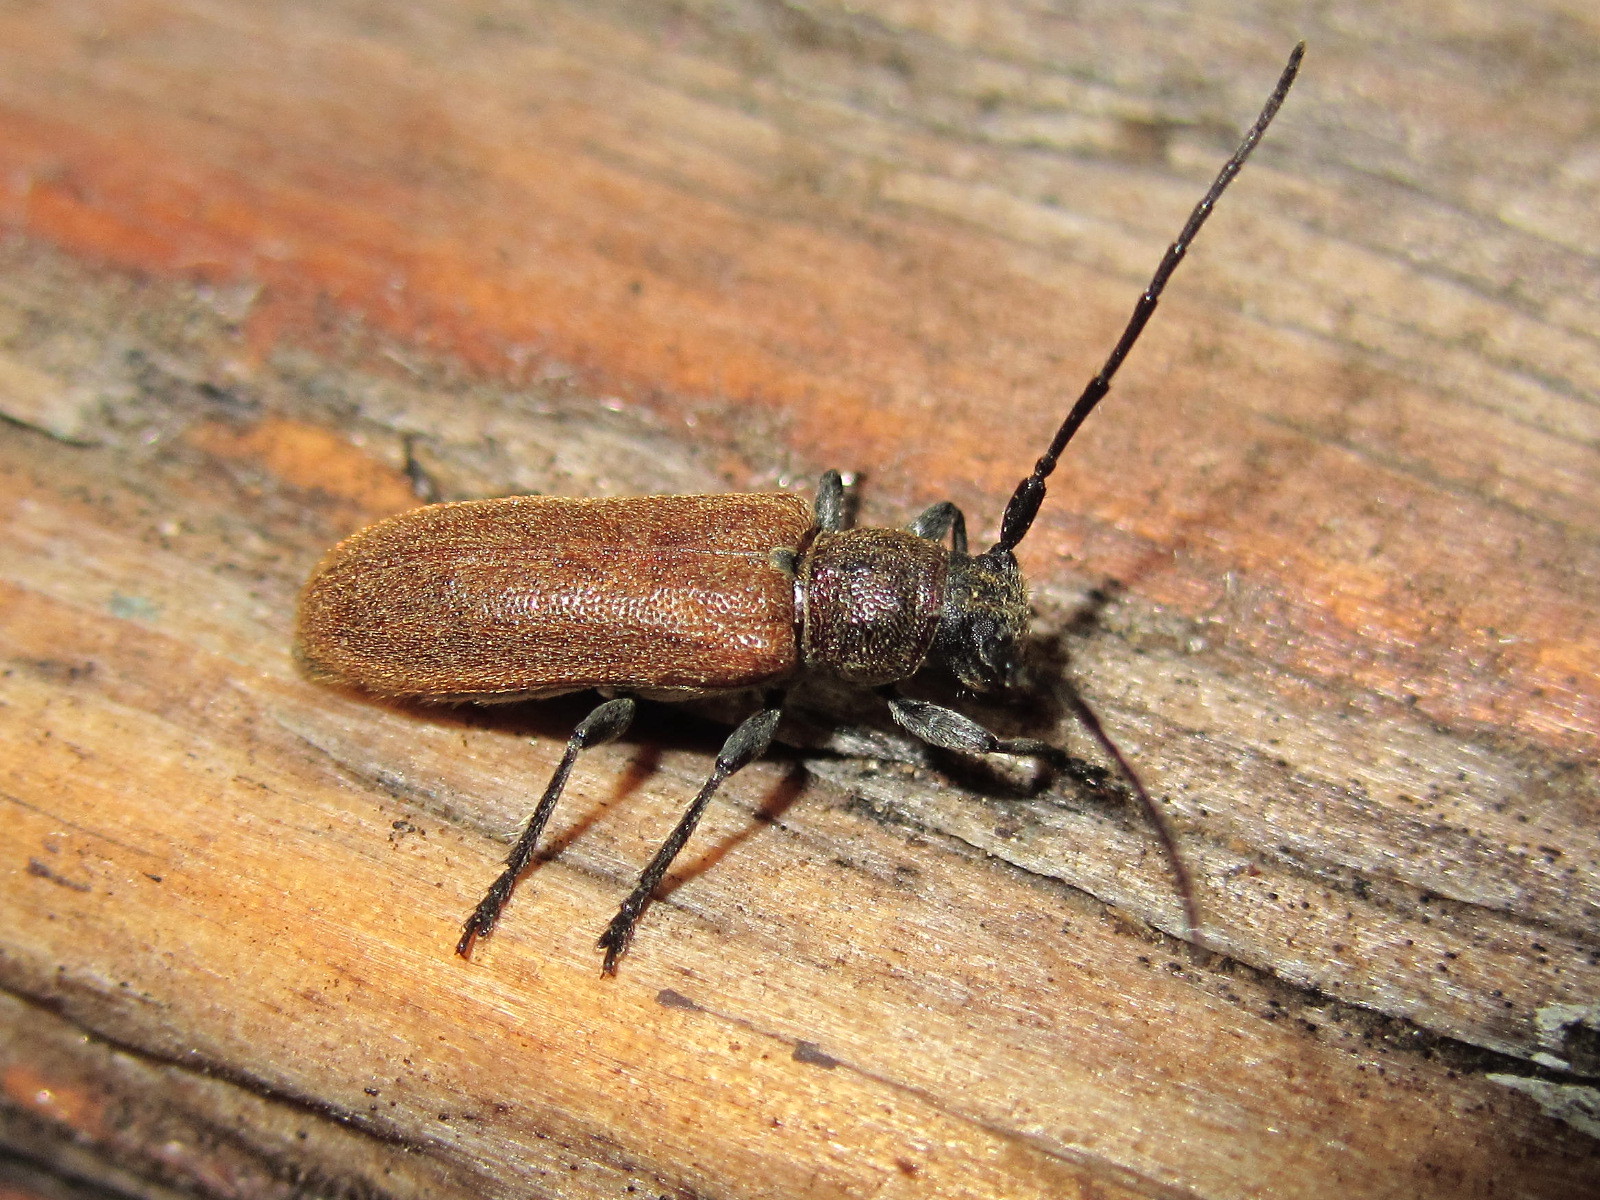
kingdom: Animalia
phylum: Arthropoda
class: Insecta
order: Coleoptera
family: Cerambycidae
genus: Anaesthetis
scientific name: Anaesthetis testacea
